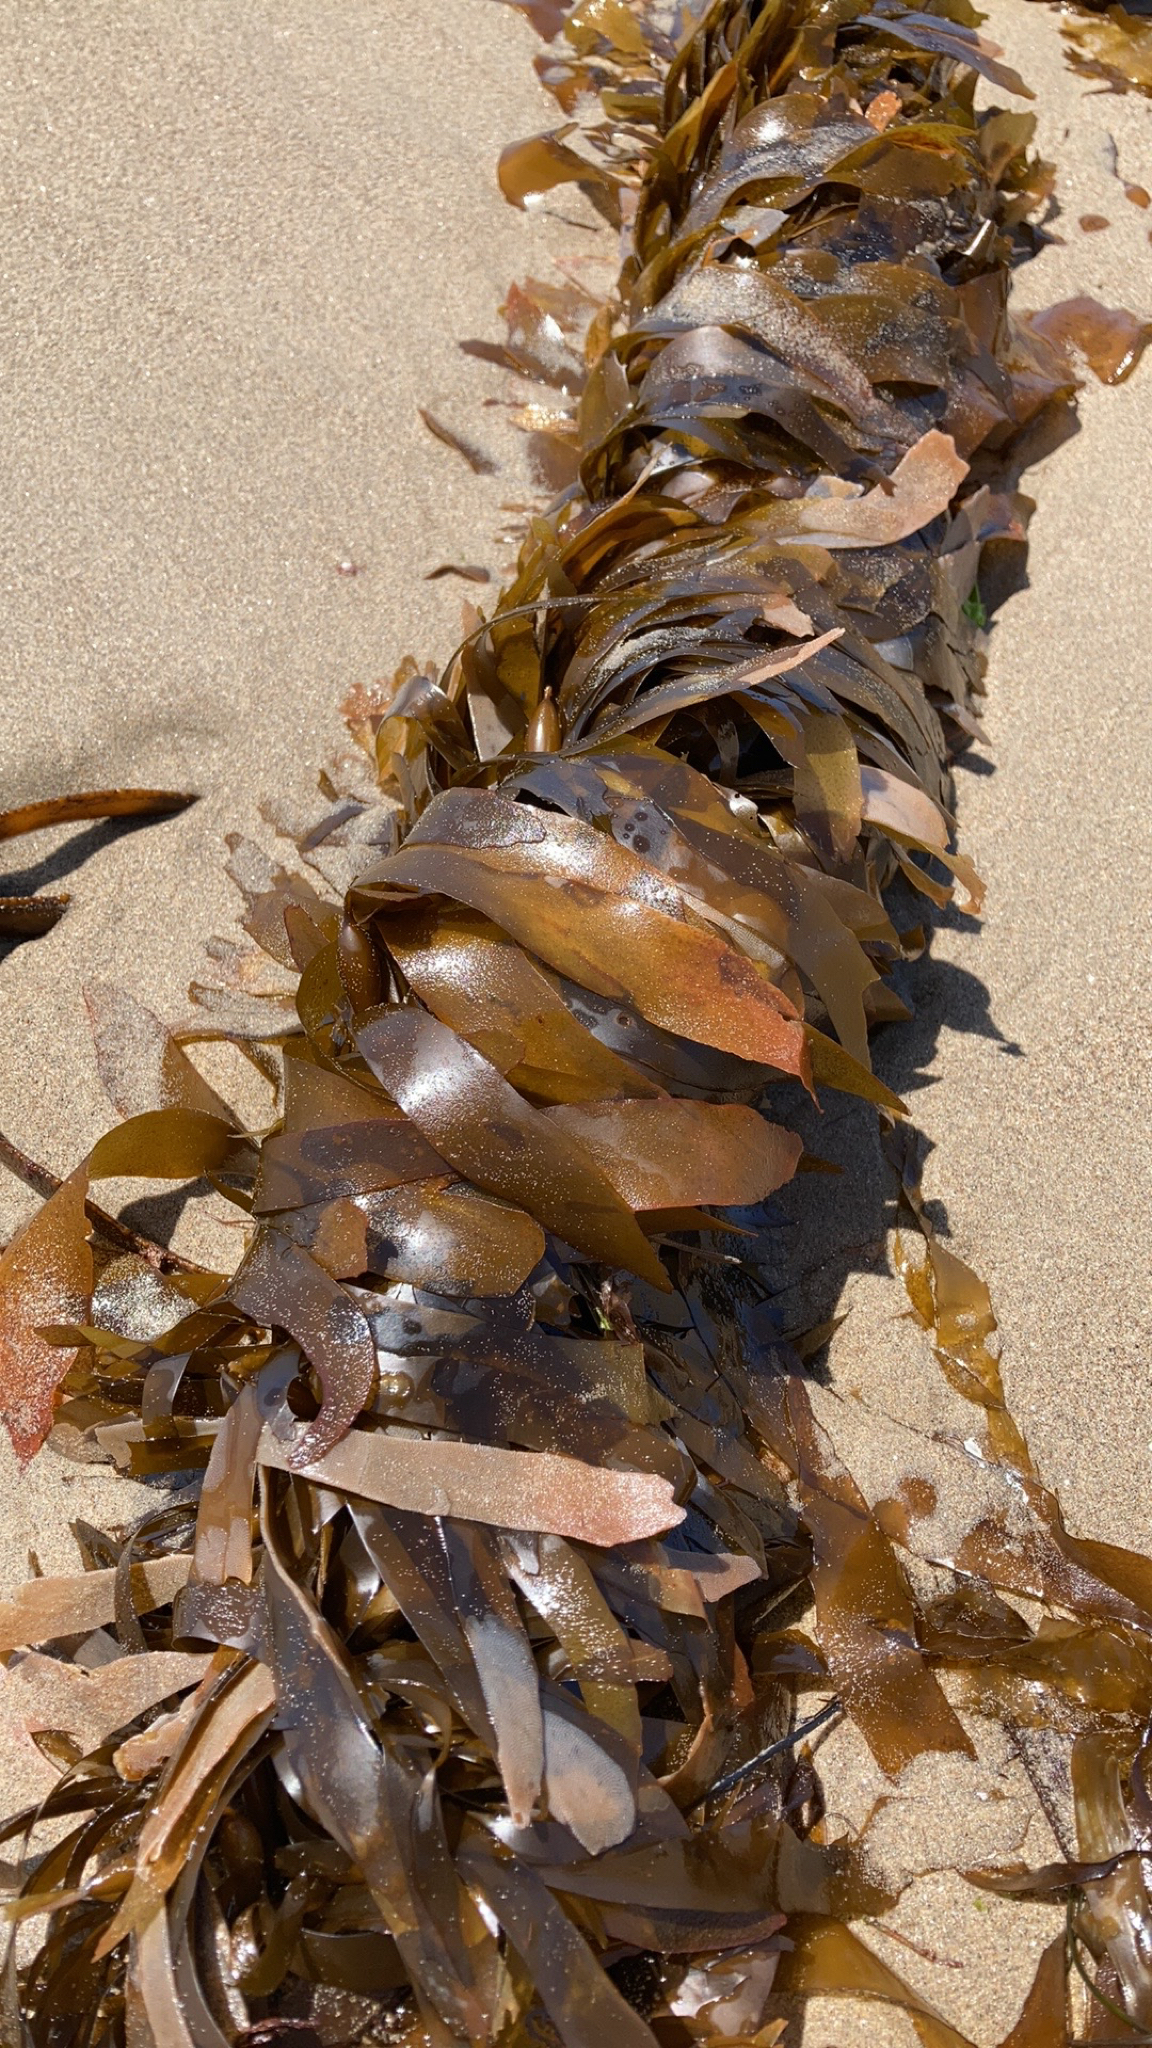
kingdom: Chromista
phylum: Ochrophyta
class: Phaeophyceae
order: Laminariales
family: Lessoniaceae
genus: Egregia
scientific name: Egregia menziesii
